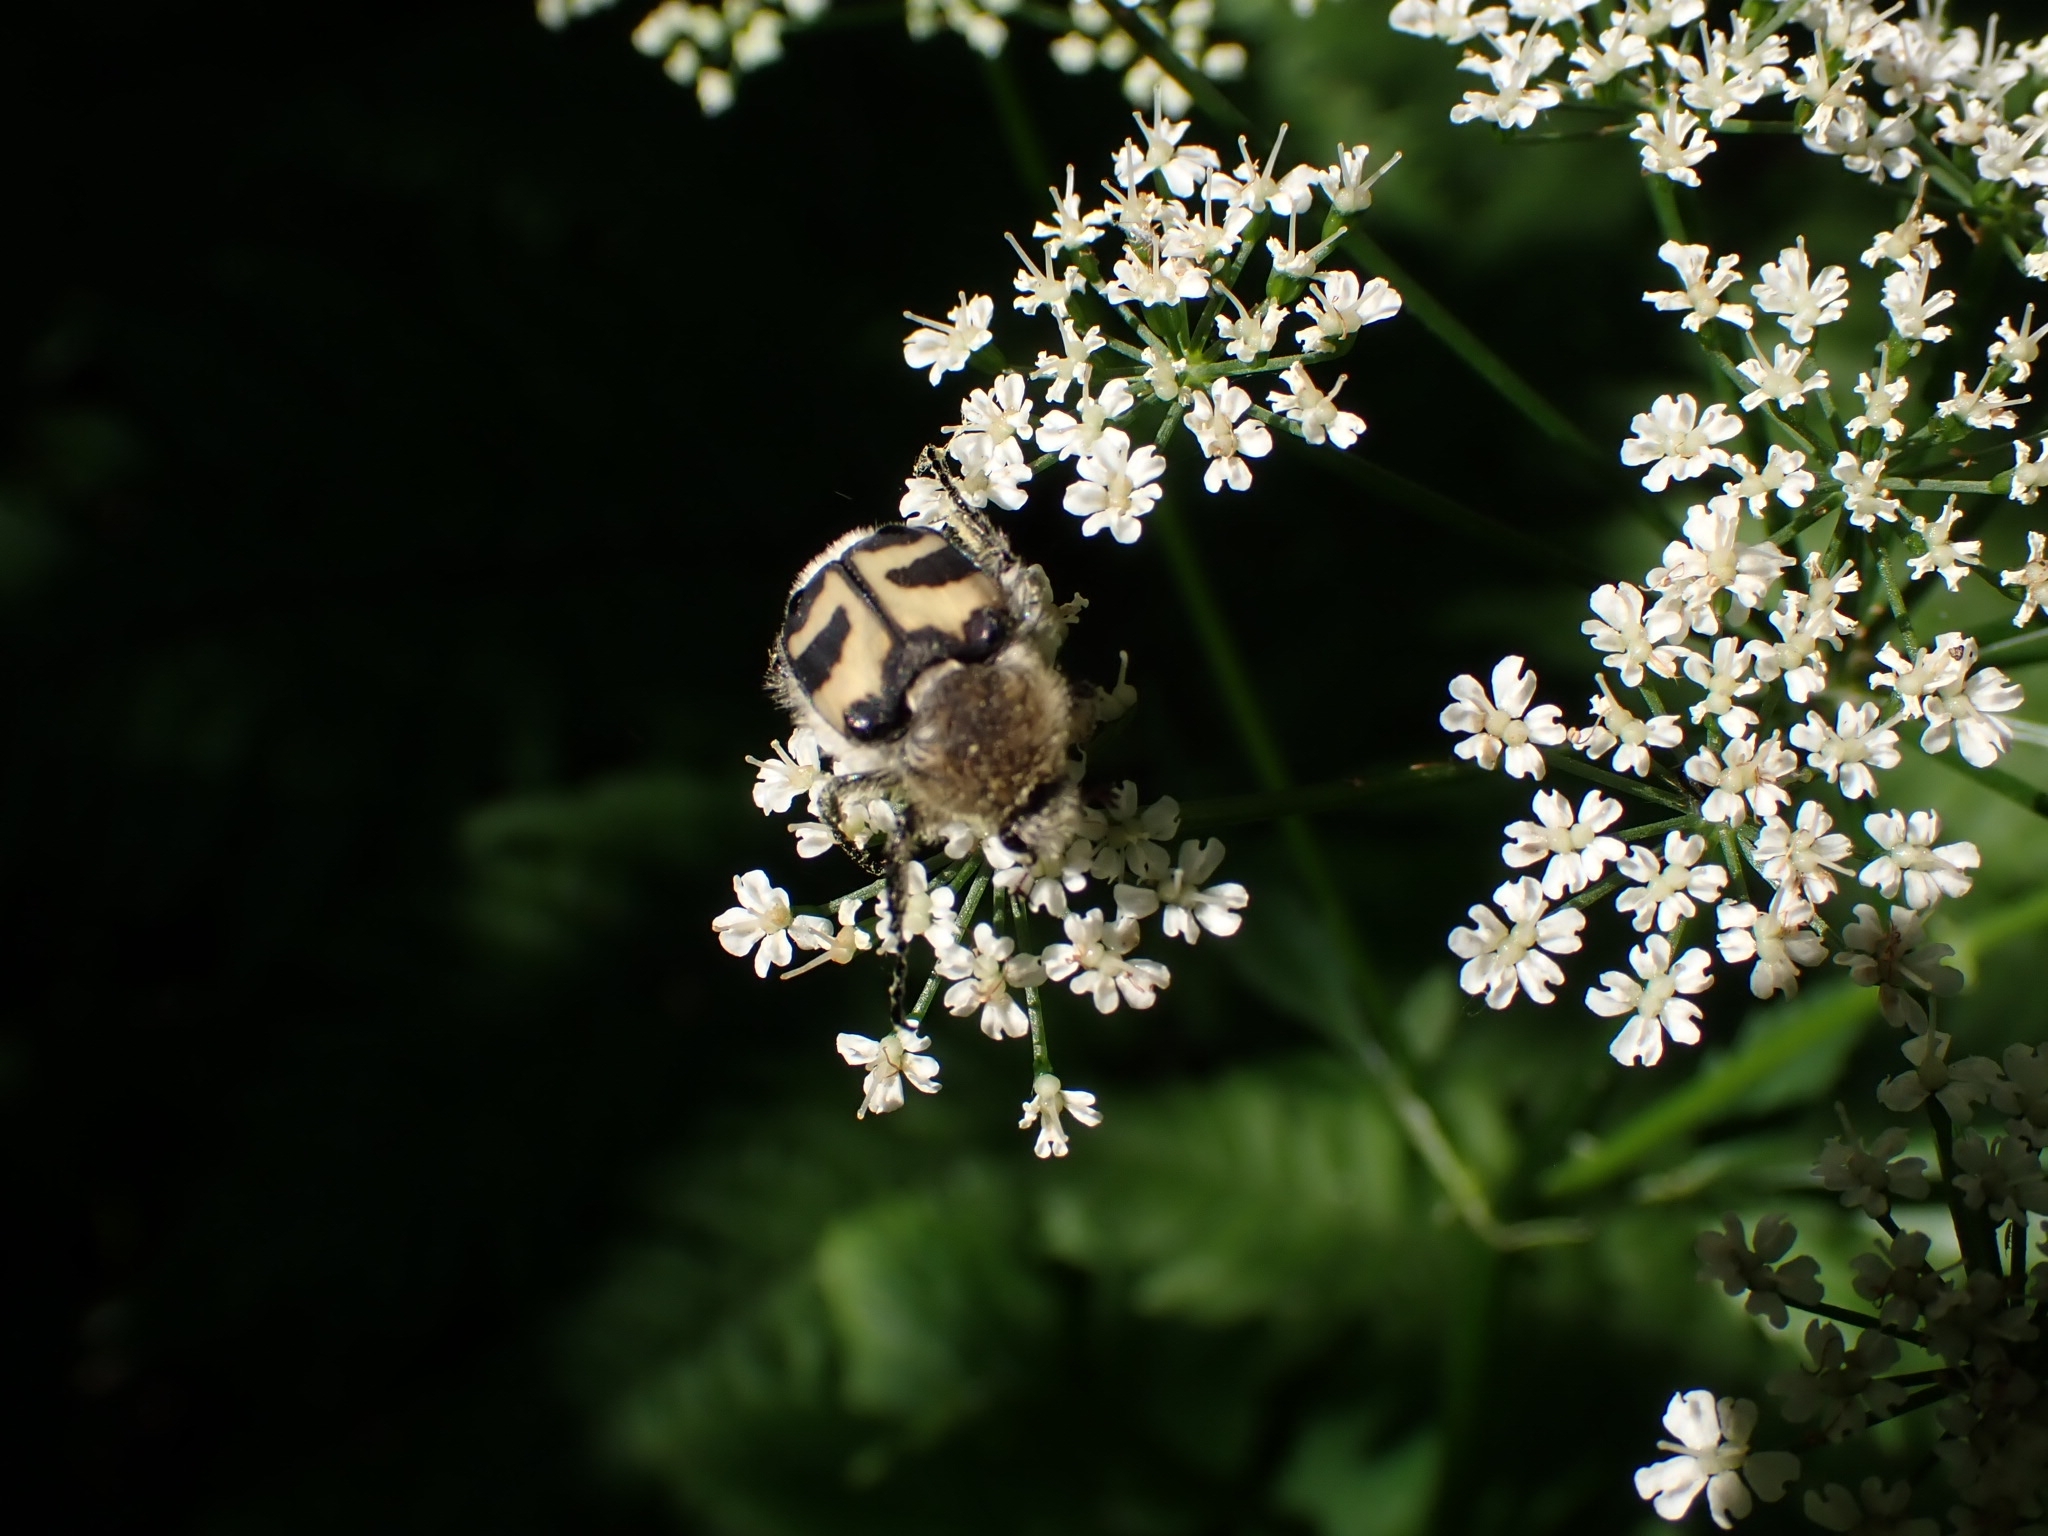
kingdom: Animalia
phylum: Arthropoda
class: Insecta
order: Coleoptera
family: Scarabaeidae
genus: Trichius
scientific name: Trichius fasciatus
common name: Bee beetle
